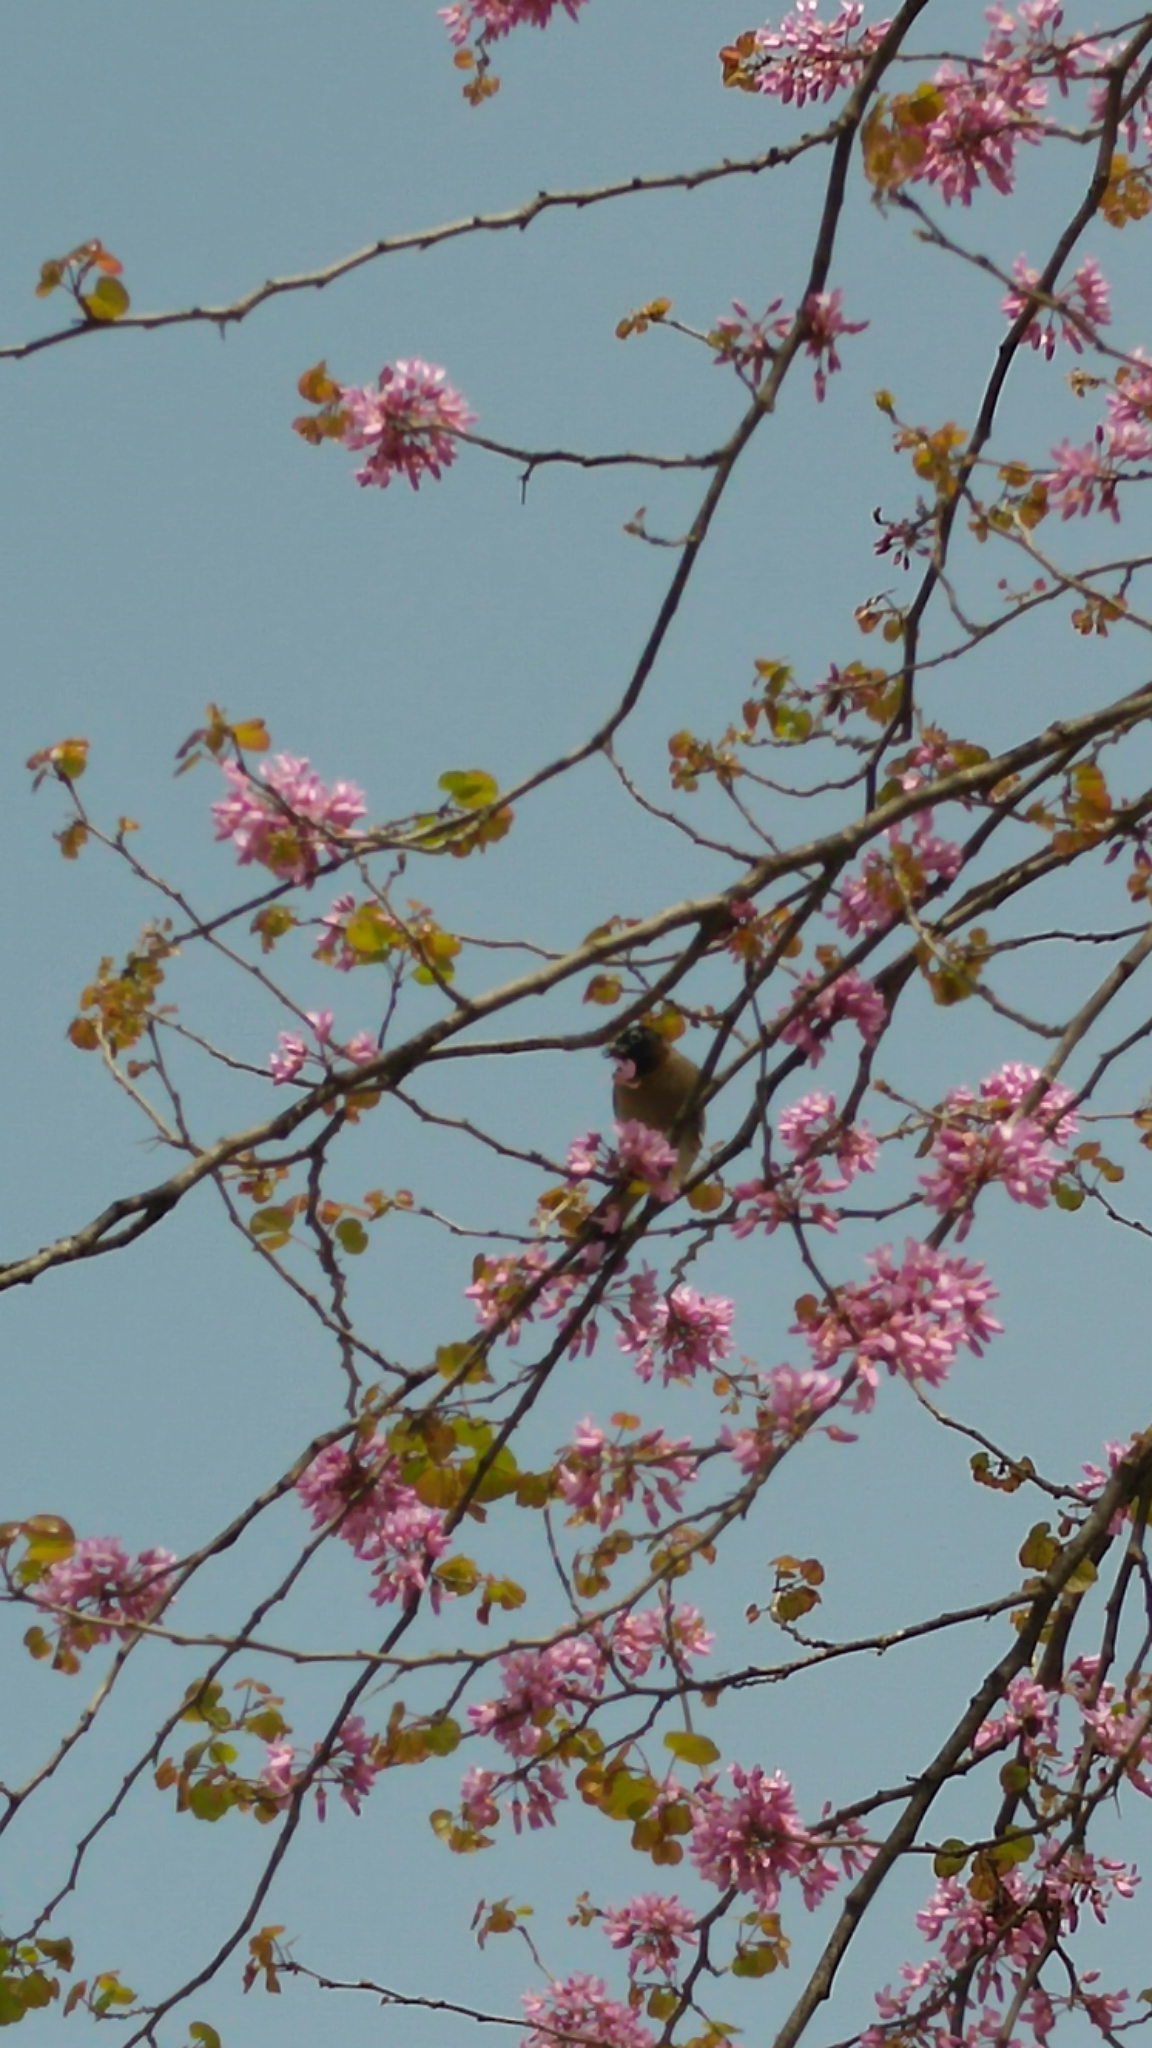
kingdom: Animalia
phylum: Chordata
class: Aves
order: Passeriformes
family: Pycnonotidae
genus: Pycnonotus
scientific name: Pycnonotus xanthopygos
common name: White-spectacled bulbul
